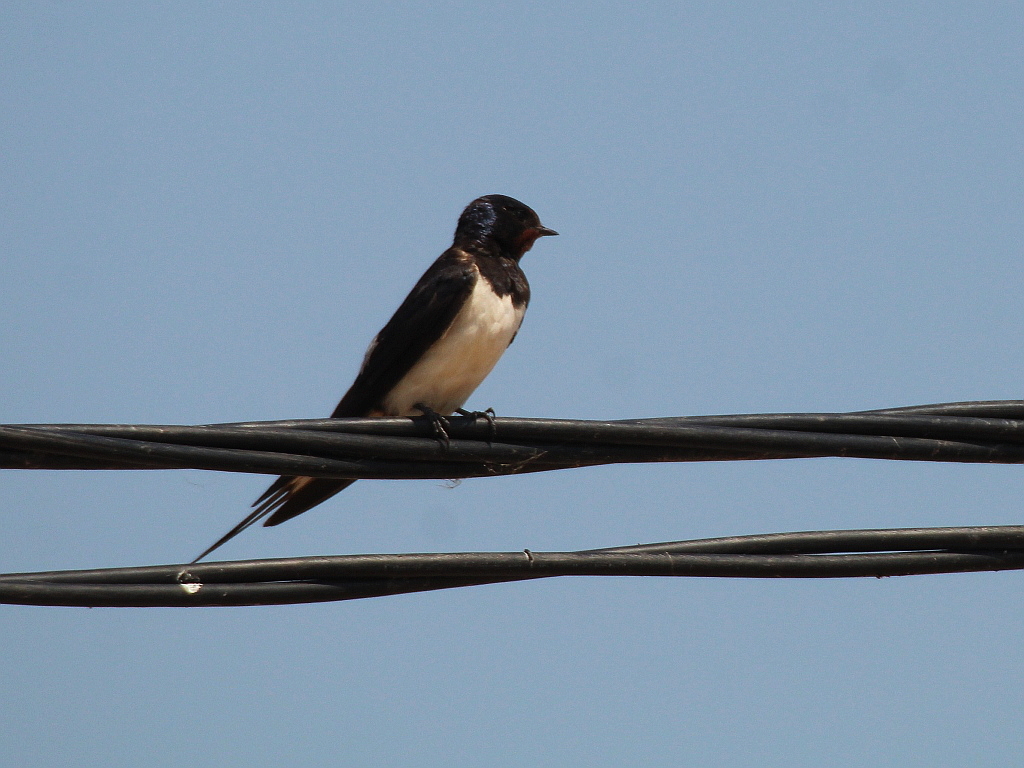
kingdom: Animalia
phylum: Chordata
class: Aves
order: Passeriformes
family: Hirundinidae
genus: Hirundo
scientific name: Hirundo rustica
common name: Barn swallow
